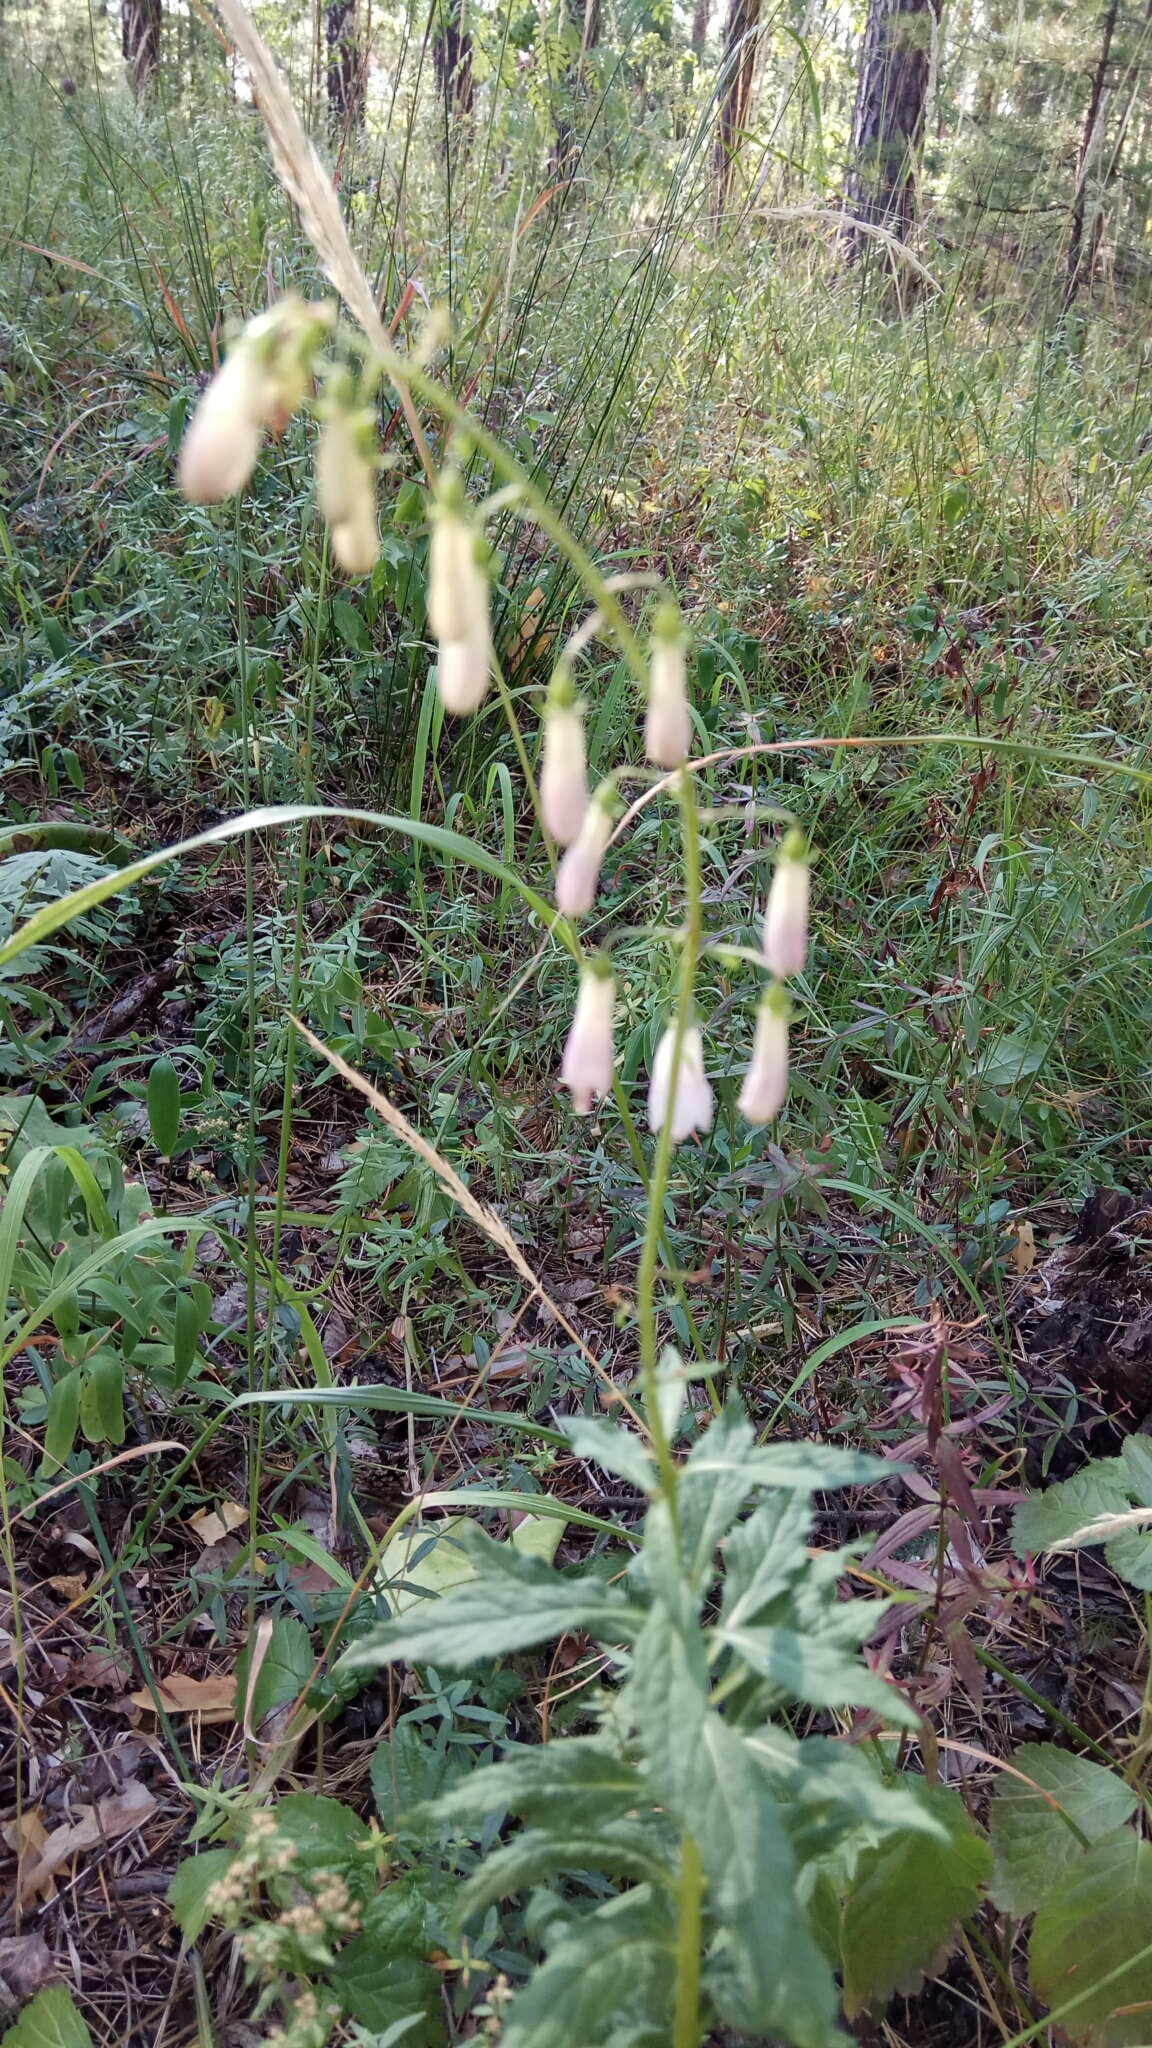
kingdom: Plantae
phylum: Tracheophyta
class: Magnoliopsida
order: Asterales
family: Campanulaceae
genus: Adenophora
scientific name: Adenophora liliifolia
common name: Lilyleaf ladybells
